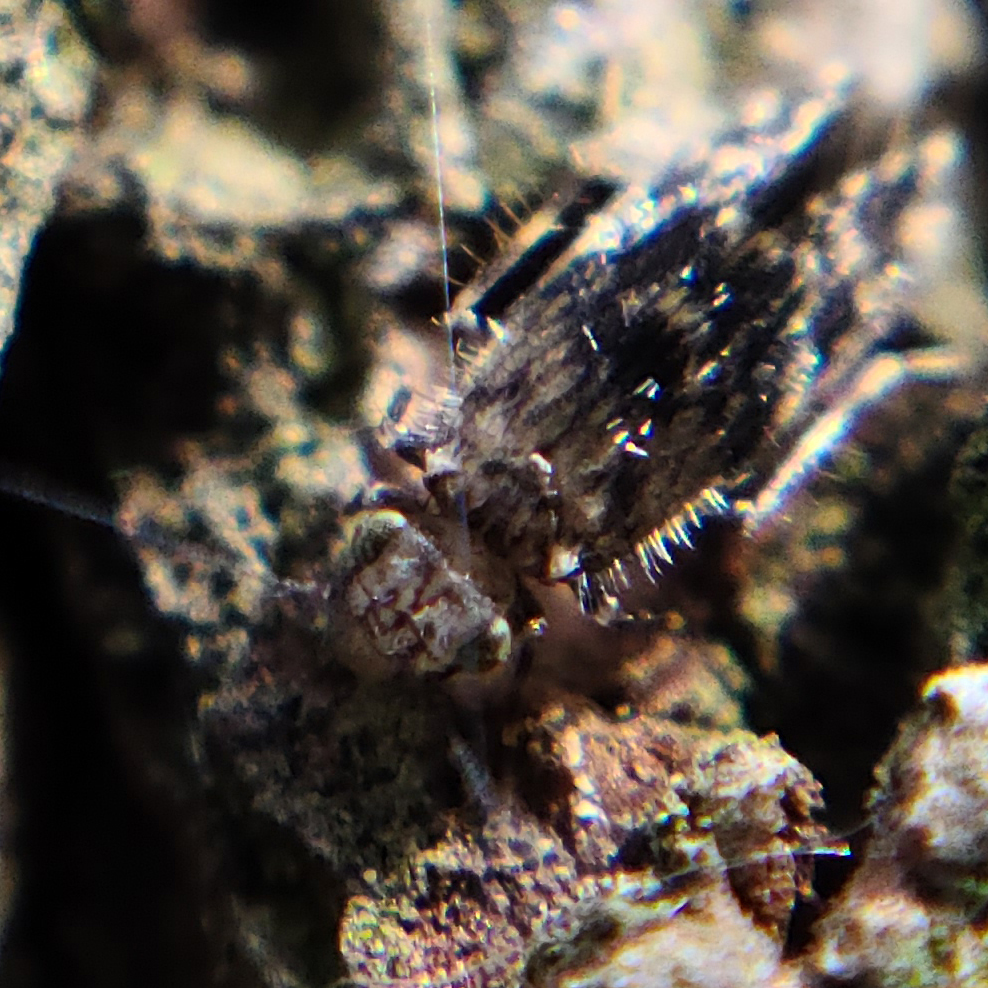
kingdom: Animalia
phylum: Arthropoda
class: Insecta
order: Psocodea
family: Lepidopsocidae
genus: Echmepteryx
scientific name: Echmepteryx hageni
